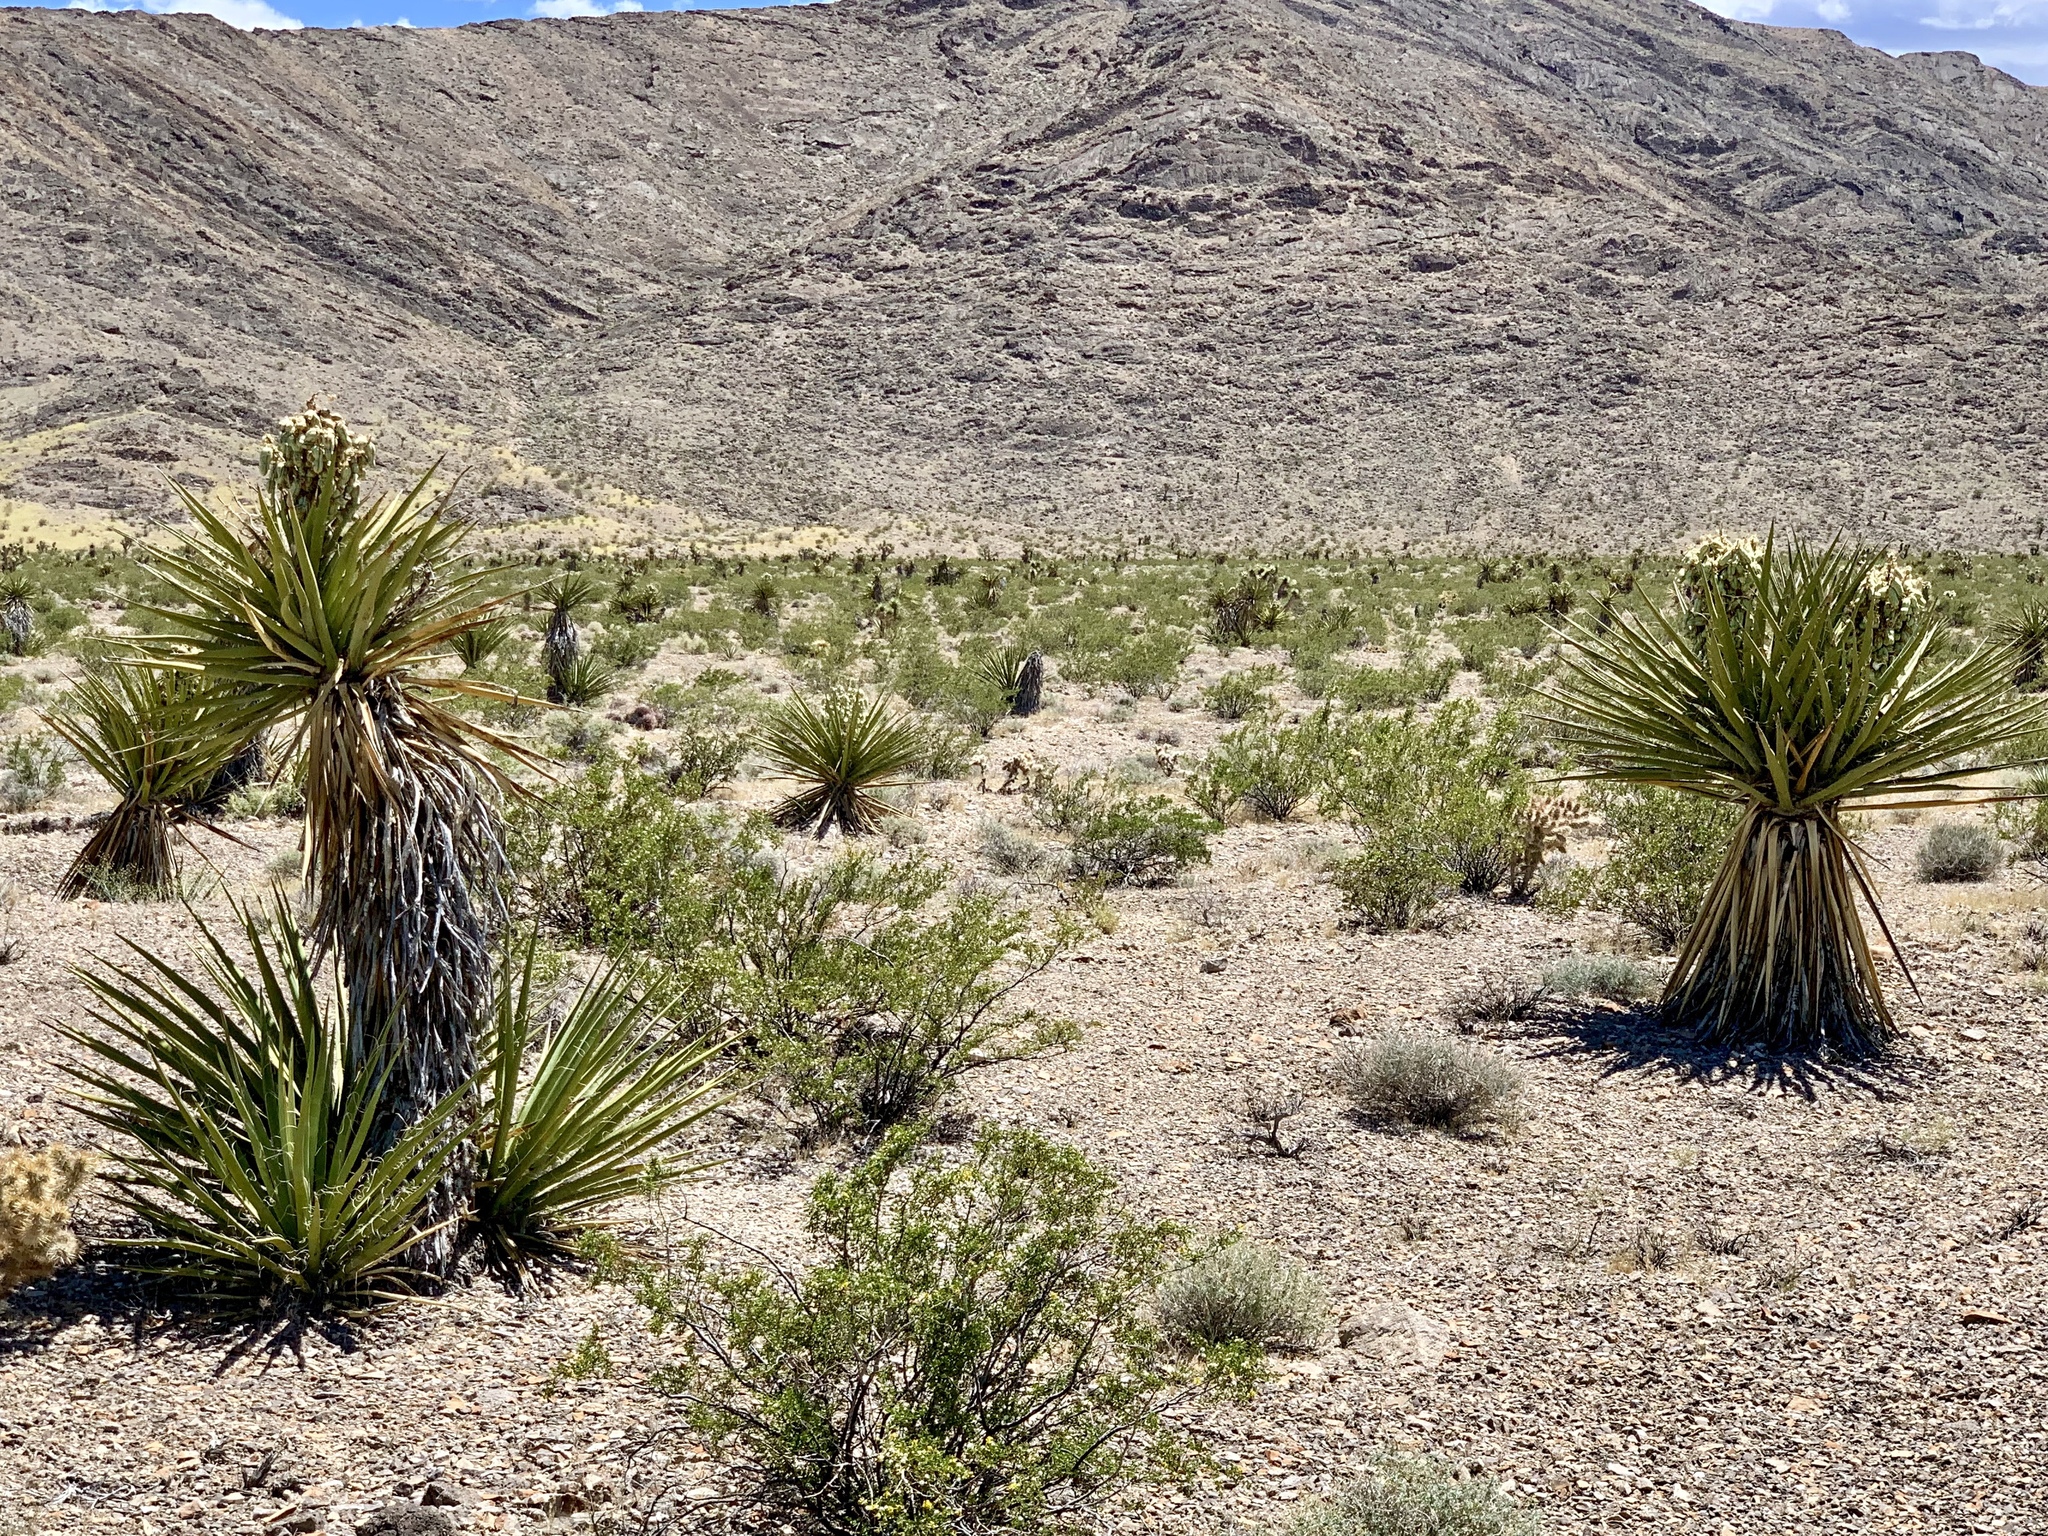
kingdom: Plantae
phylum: Tracheophyta
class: Liliopsida
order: Asparagales
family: Asparagaceae
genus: Yucca
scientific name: Yucca schidigera
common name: Mojave yucca
